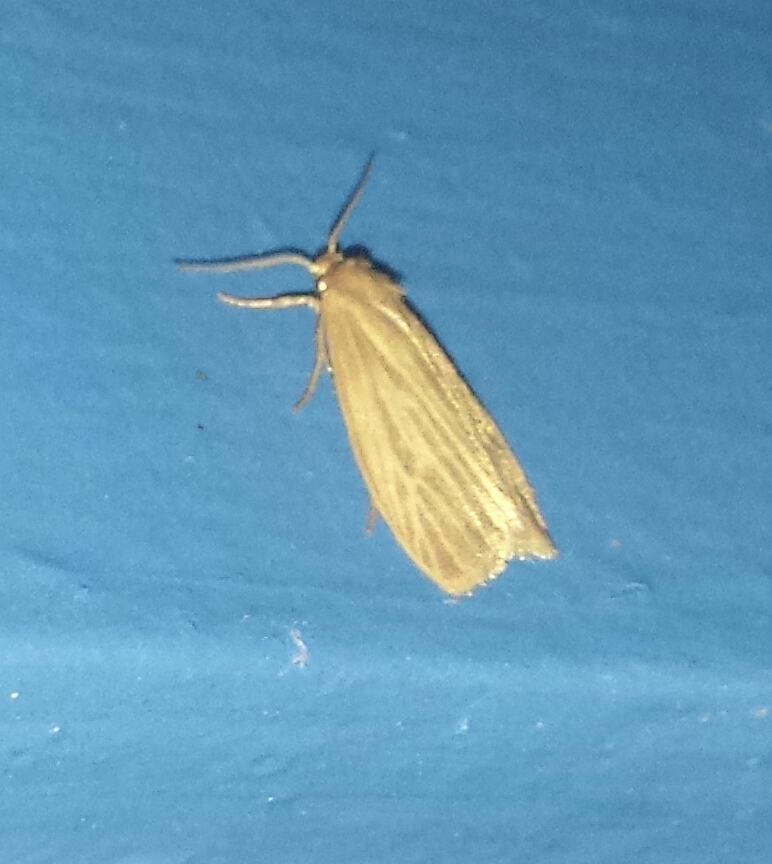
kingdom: Animalia
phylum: Arthropoda
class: Insecta
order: Lepidoptera
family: Erebidae
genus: Crambidia
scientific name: Crambidia pallida
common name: Pale lichen moth
